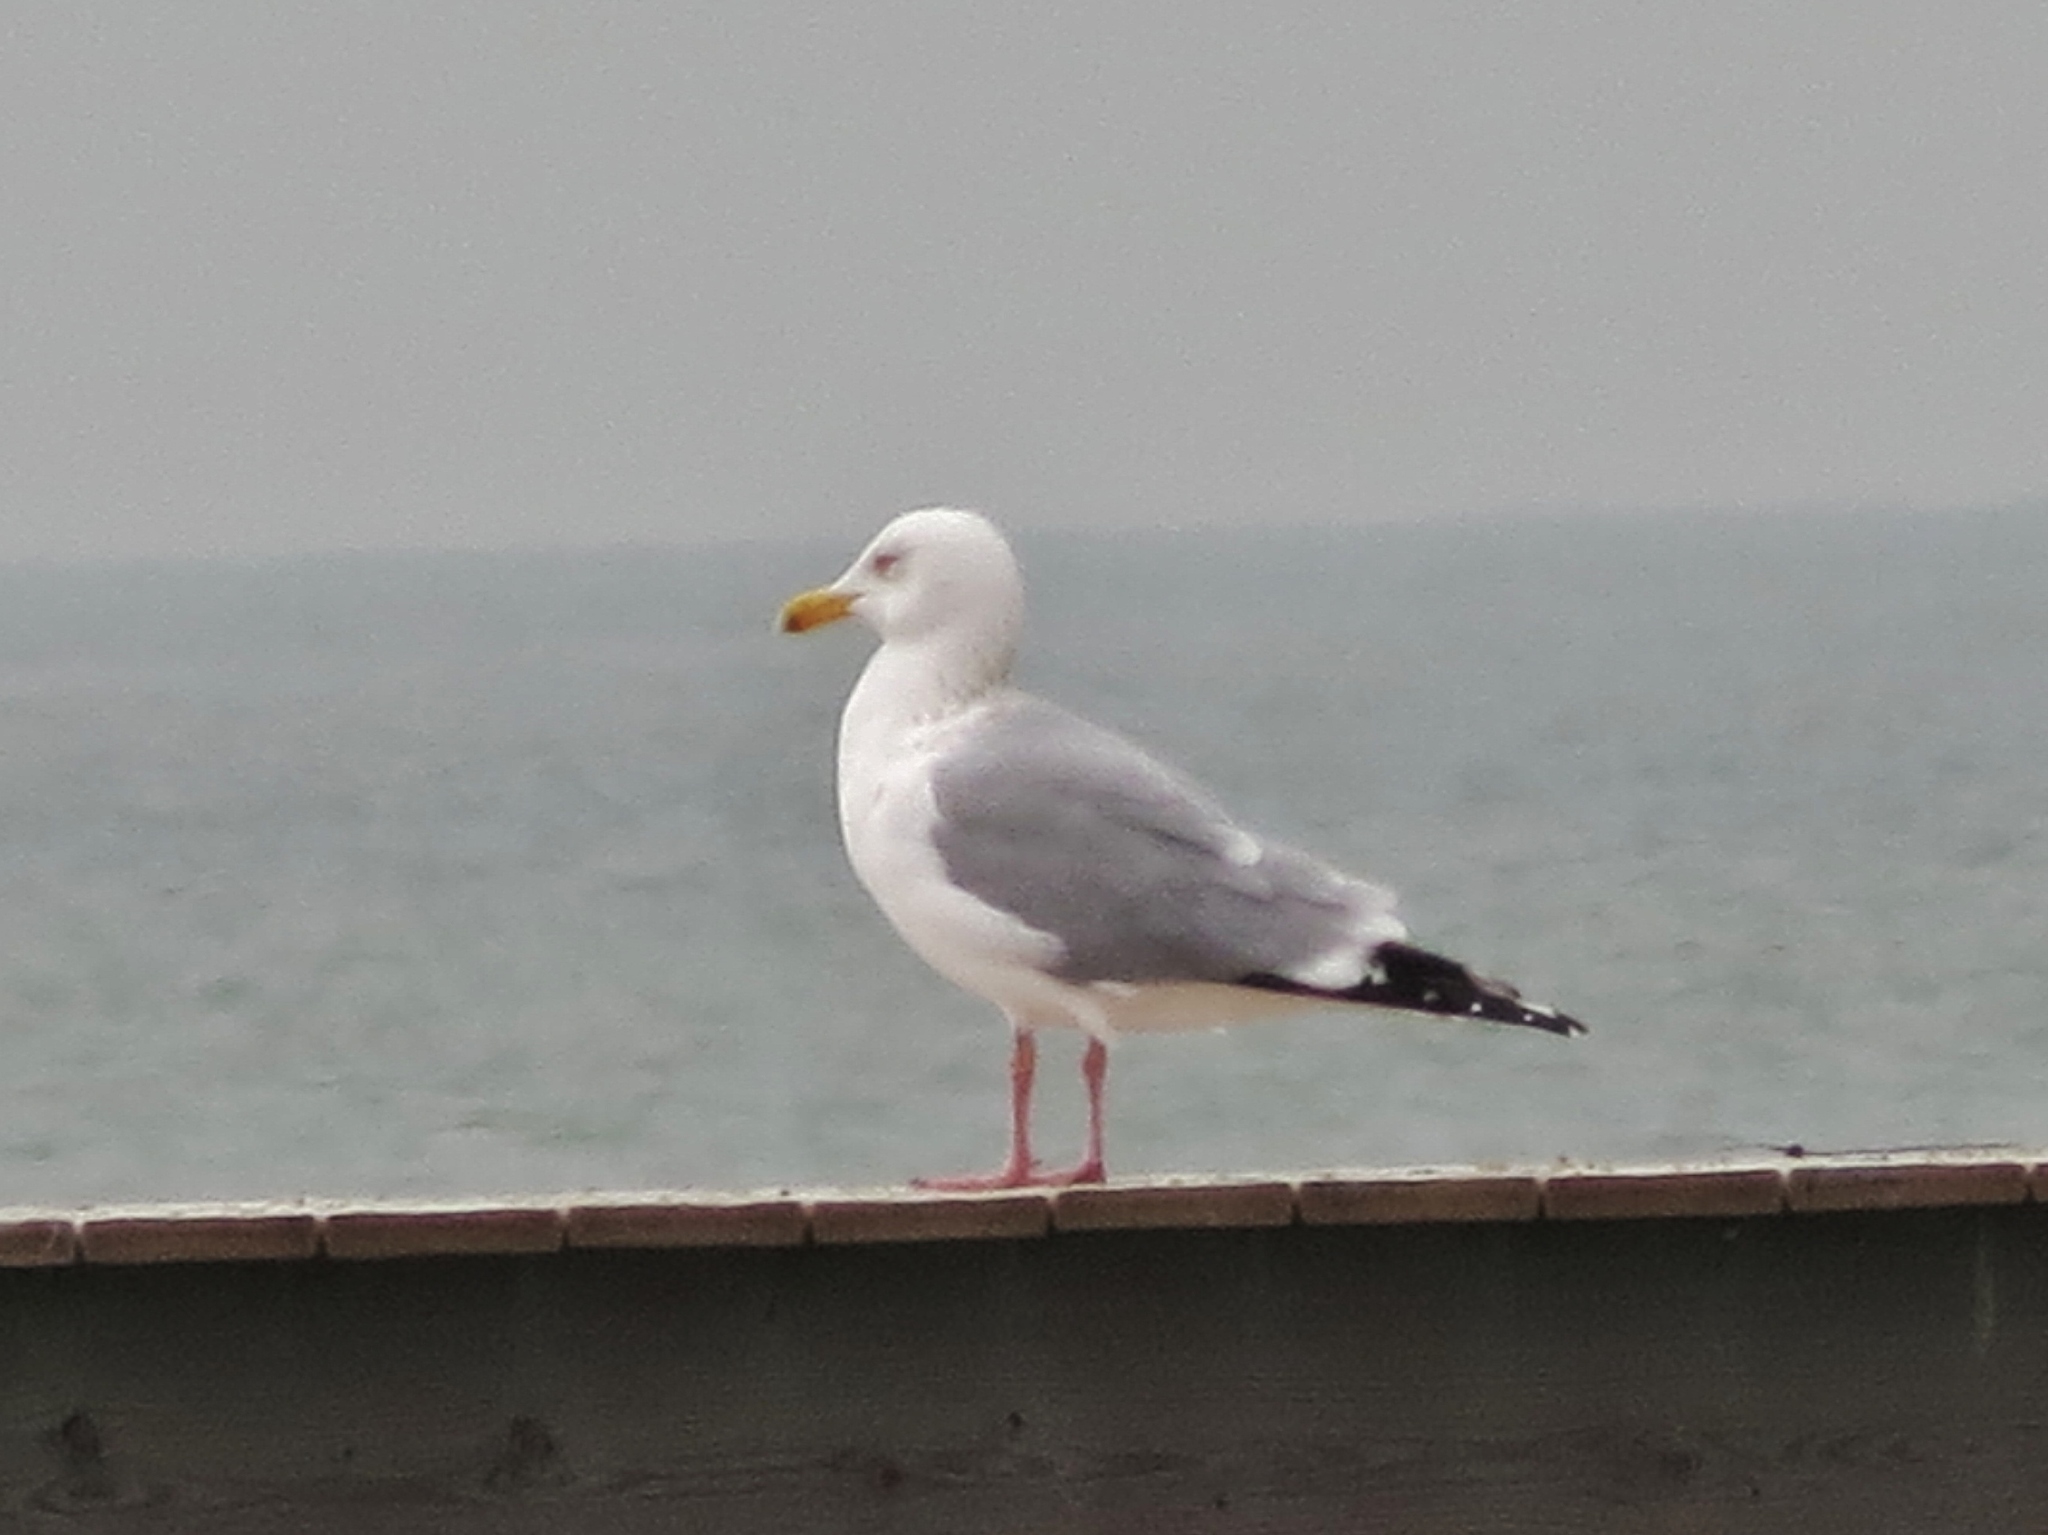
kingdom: Animalia
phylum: Chordata
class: Aves
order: Charadriiformes
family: Laridae
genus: Larus
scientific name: Larus argentatus
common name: Herring gull
